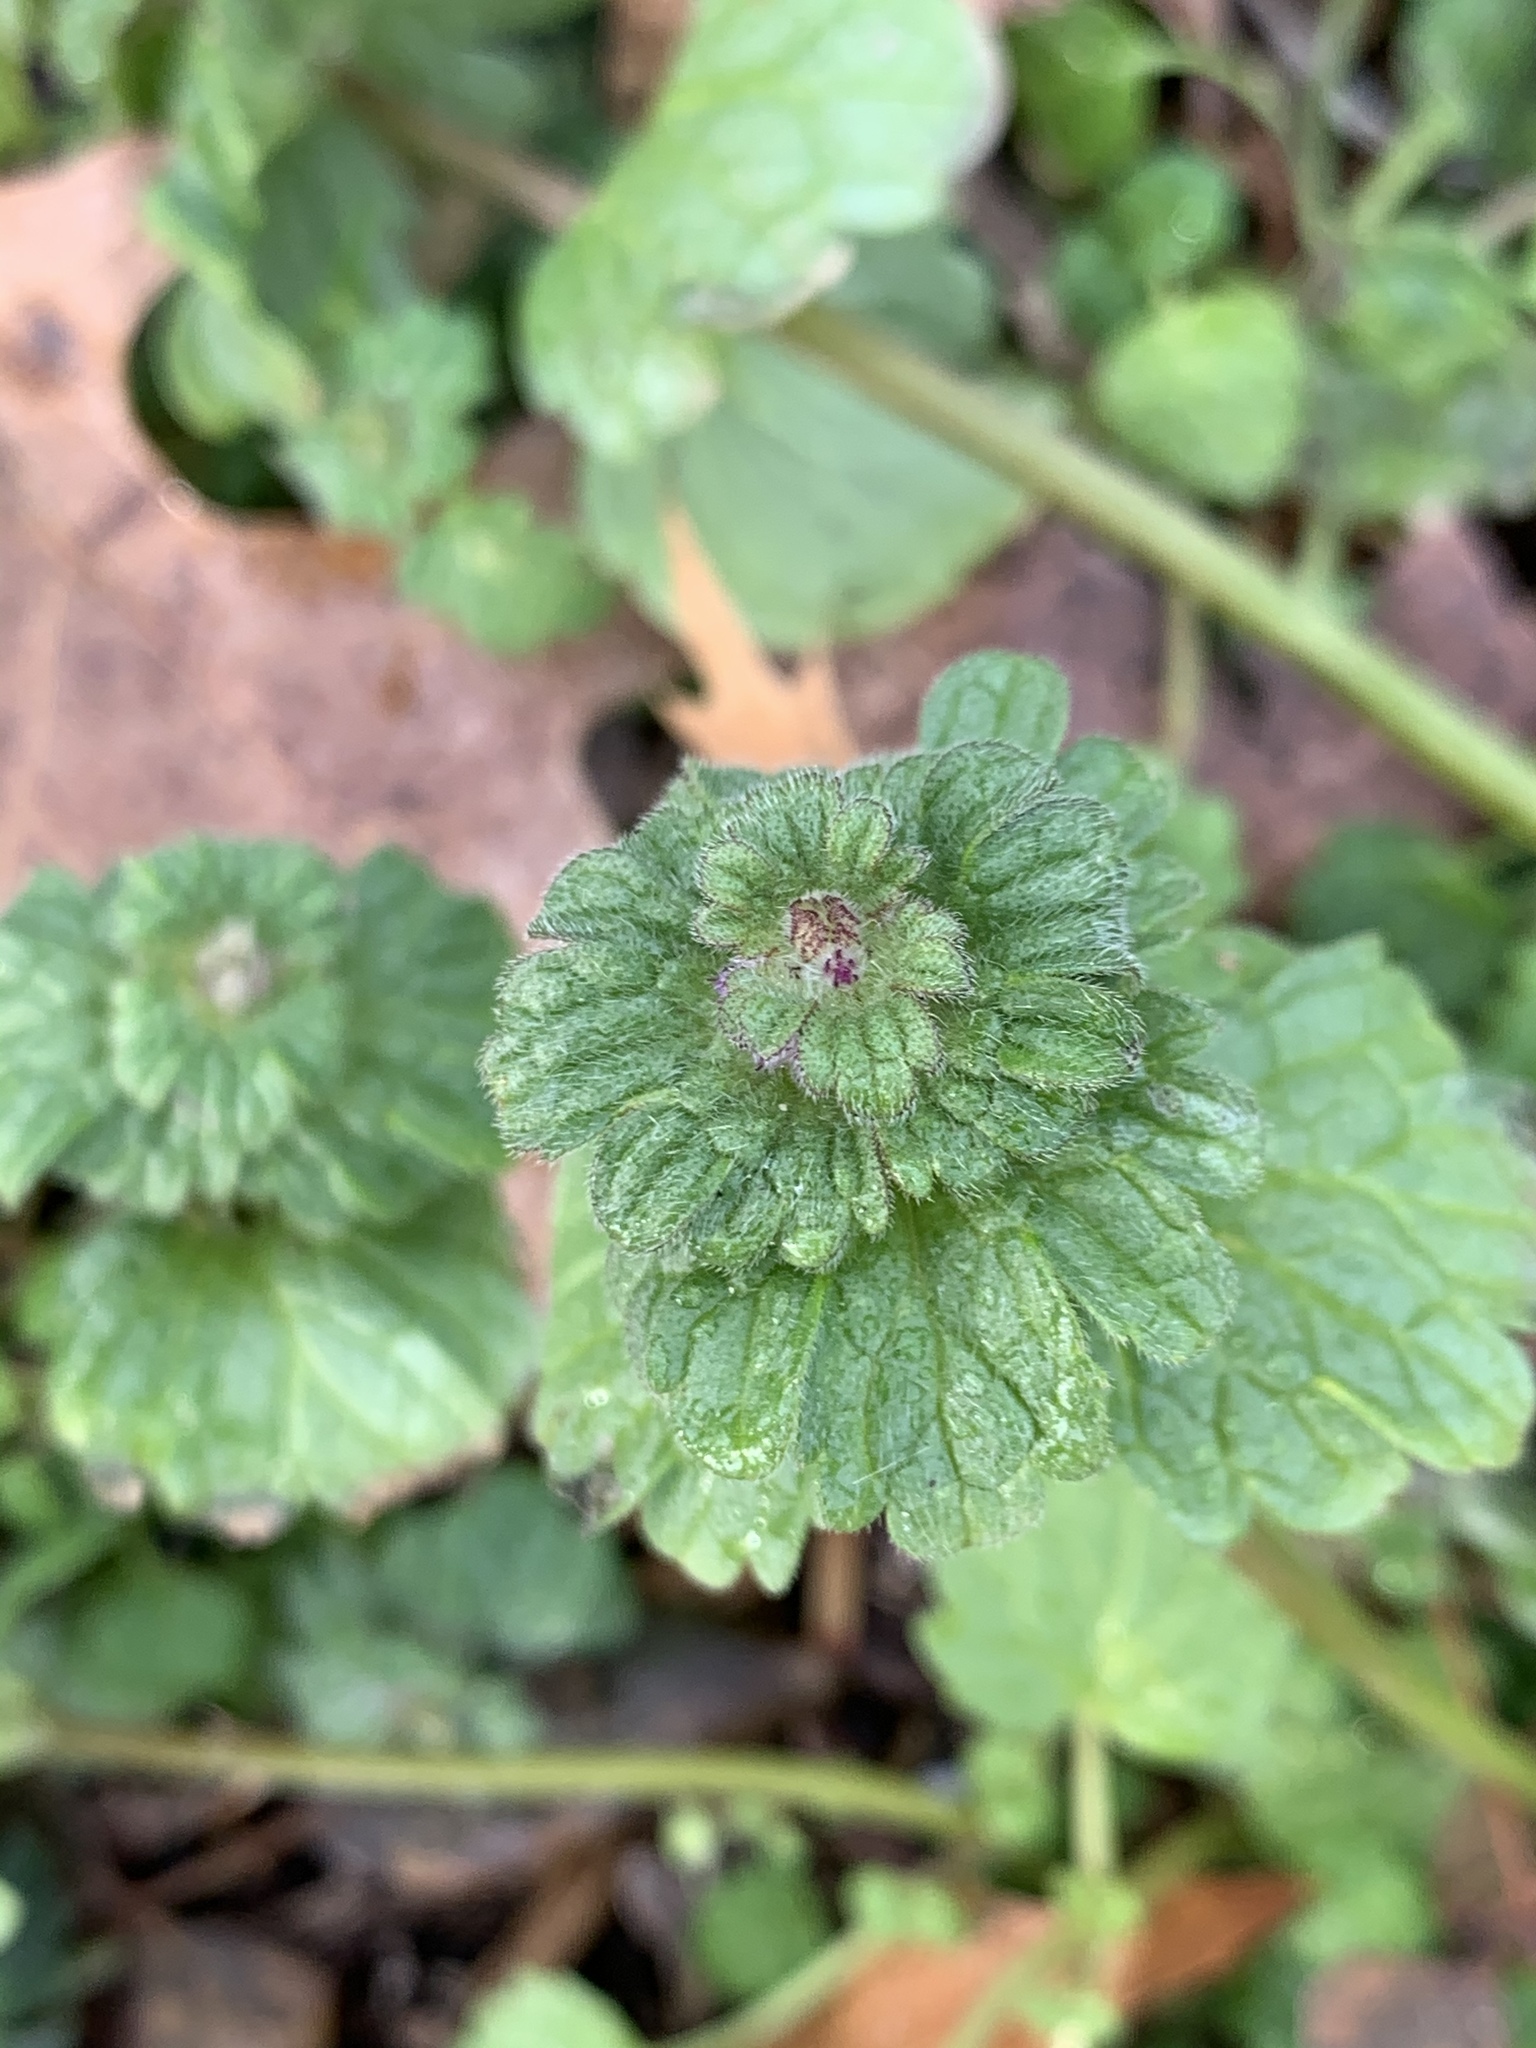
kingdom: Plantae
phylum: Tracheophyta
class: Magnoliopsida
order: Lamiales
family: Lamiaceae
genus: Lamium
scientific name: Lamium amplexicaule
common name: Henbit dead-nettle
